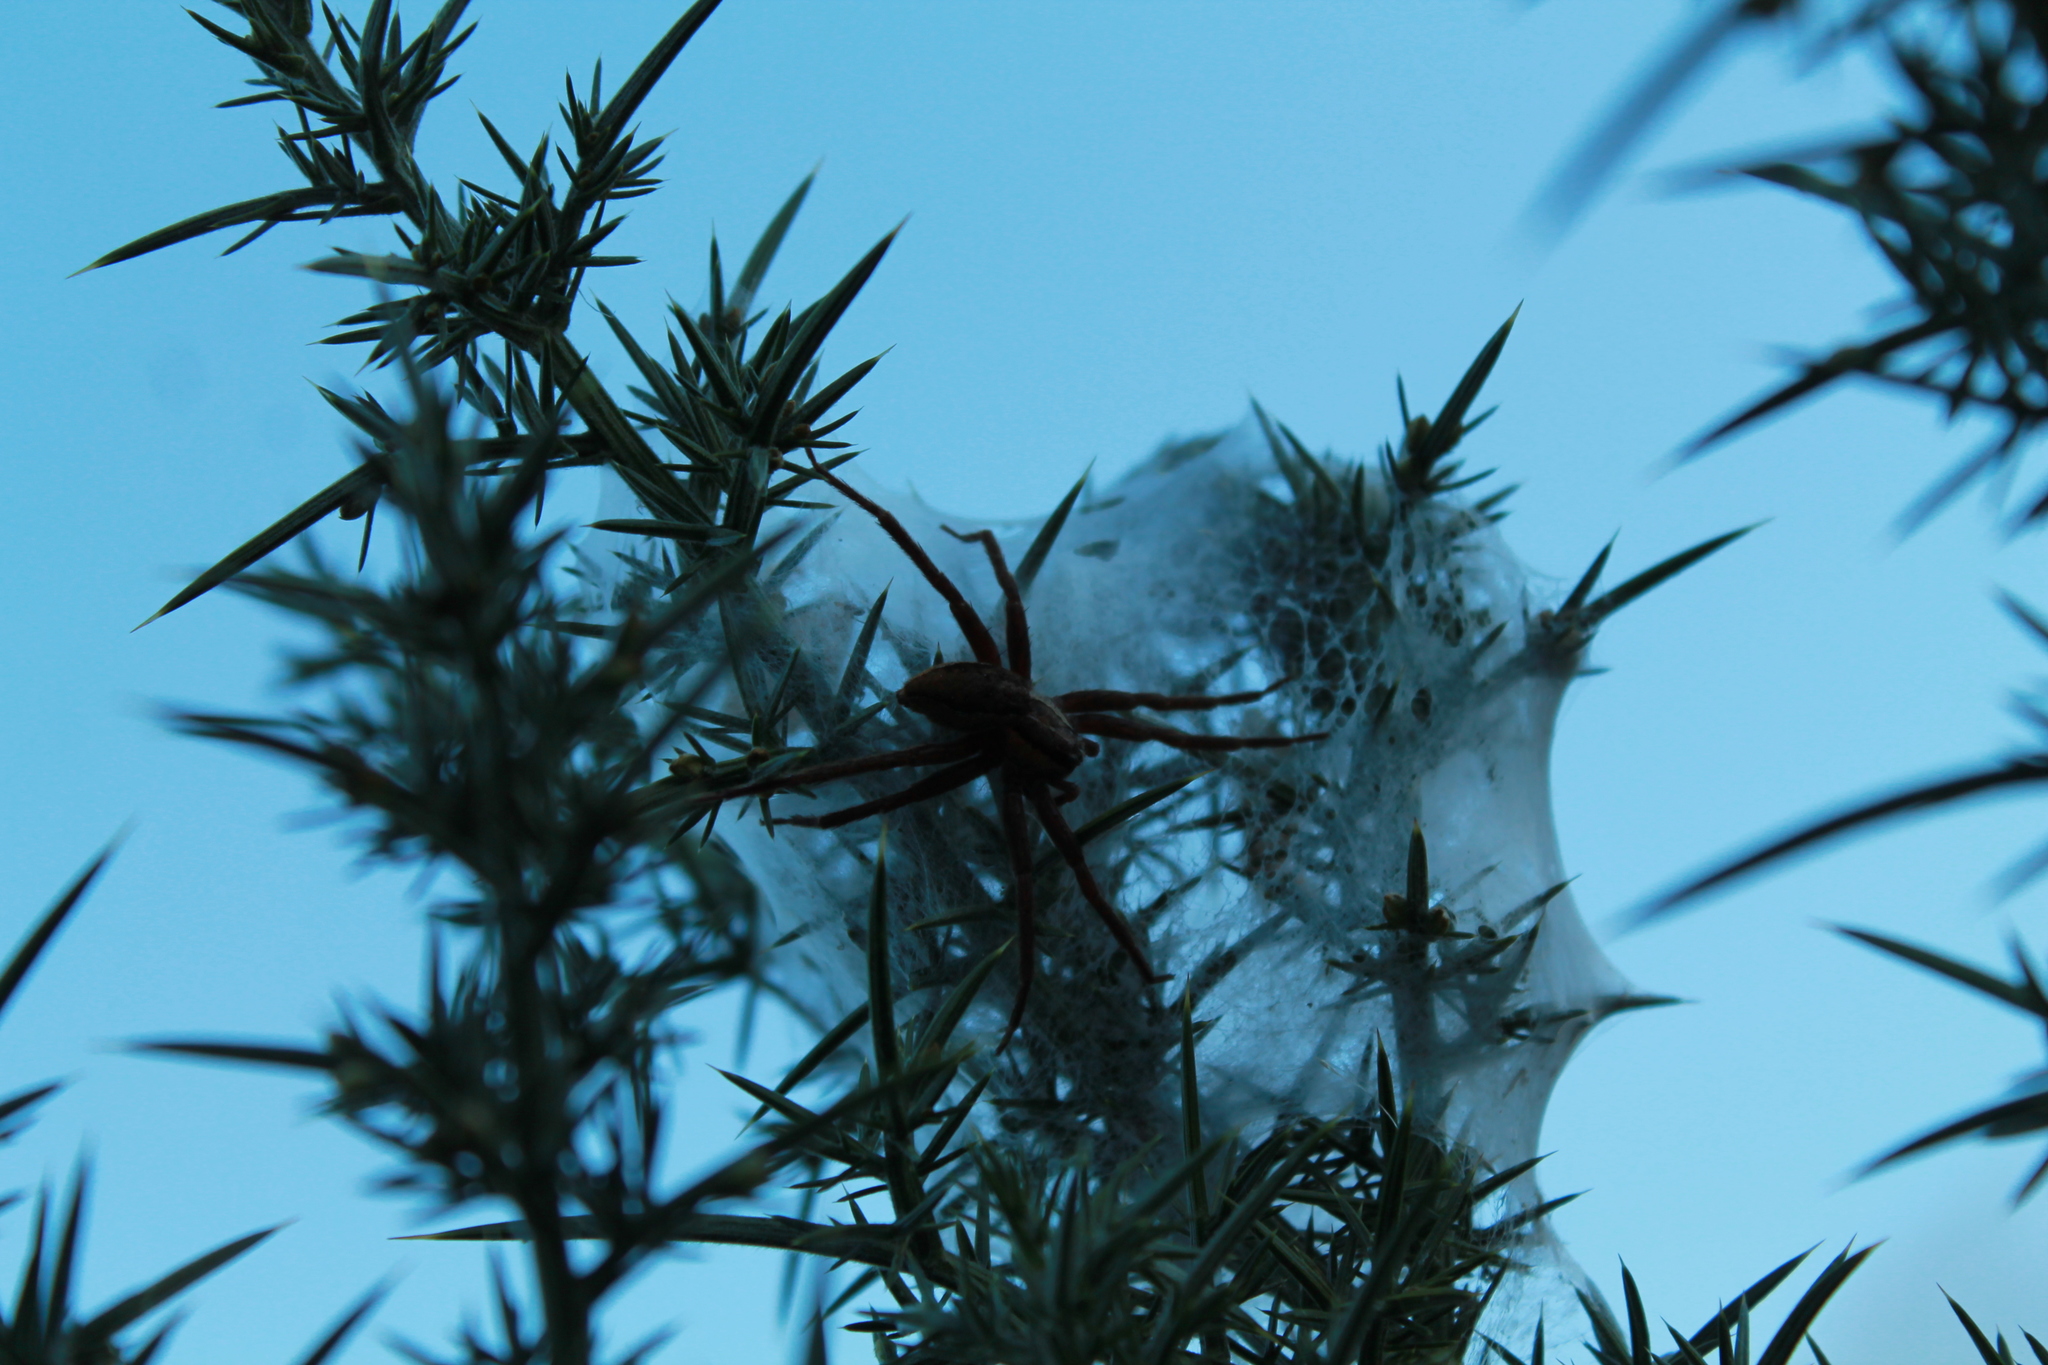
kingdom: Animalia
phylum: Arthropoda
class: Arachnida
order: Araneae
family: Pisauridae
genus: Dolomedes
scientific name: Dolomedes minor
